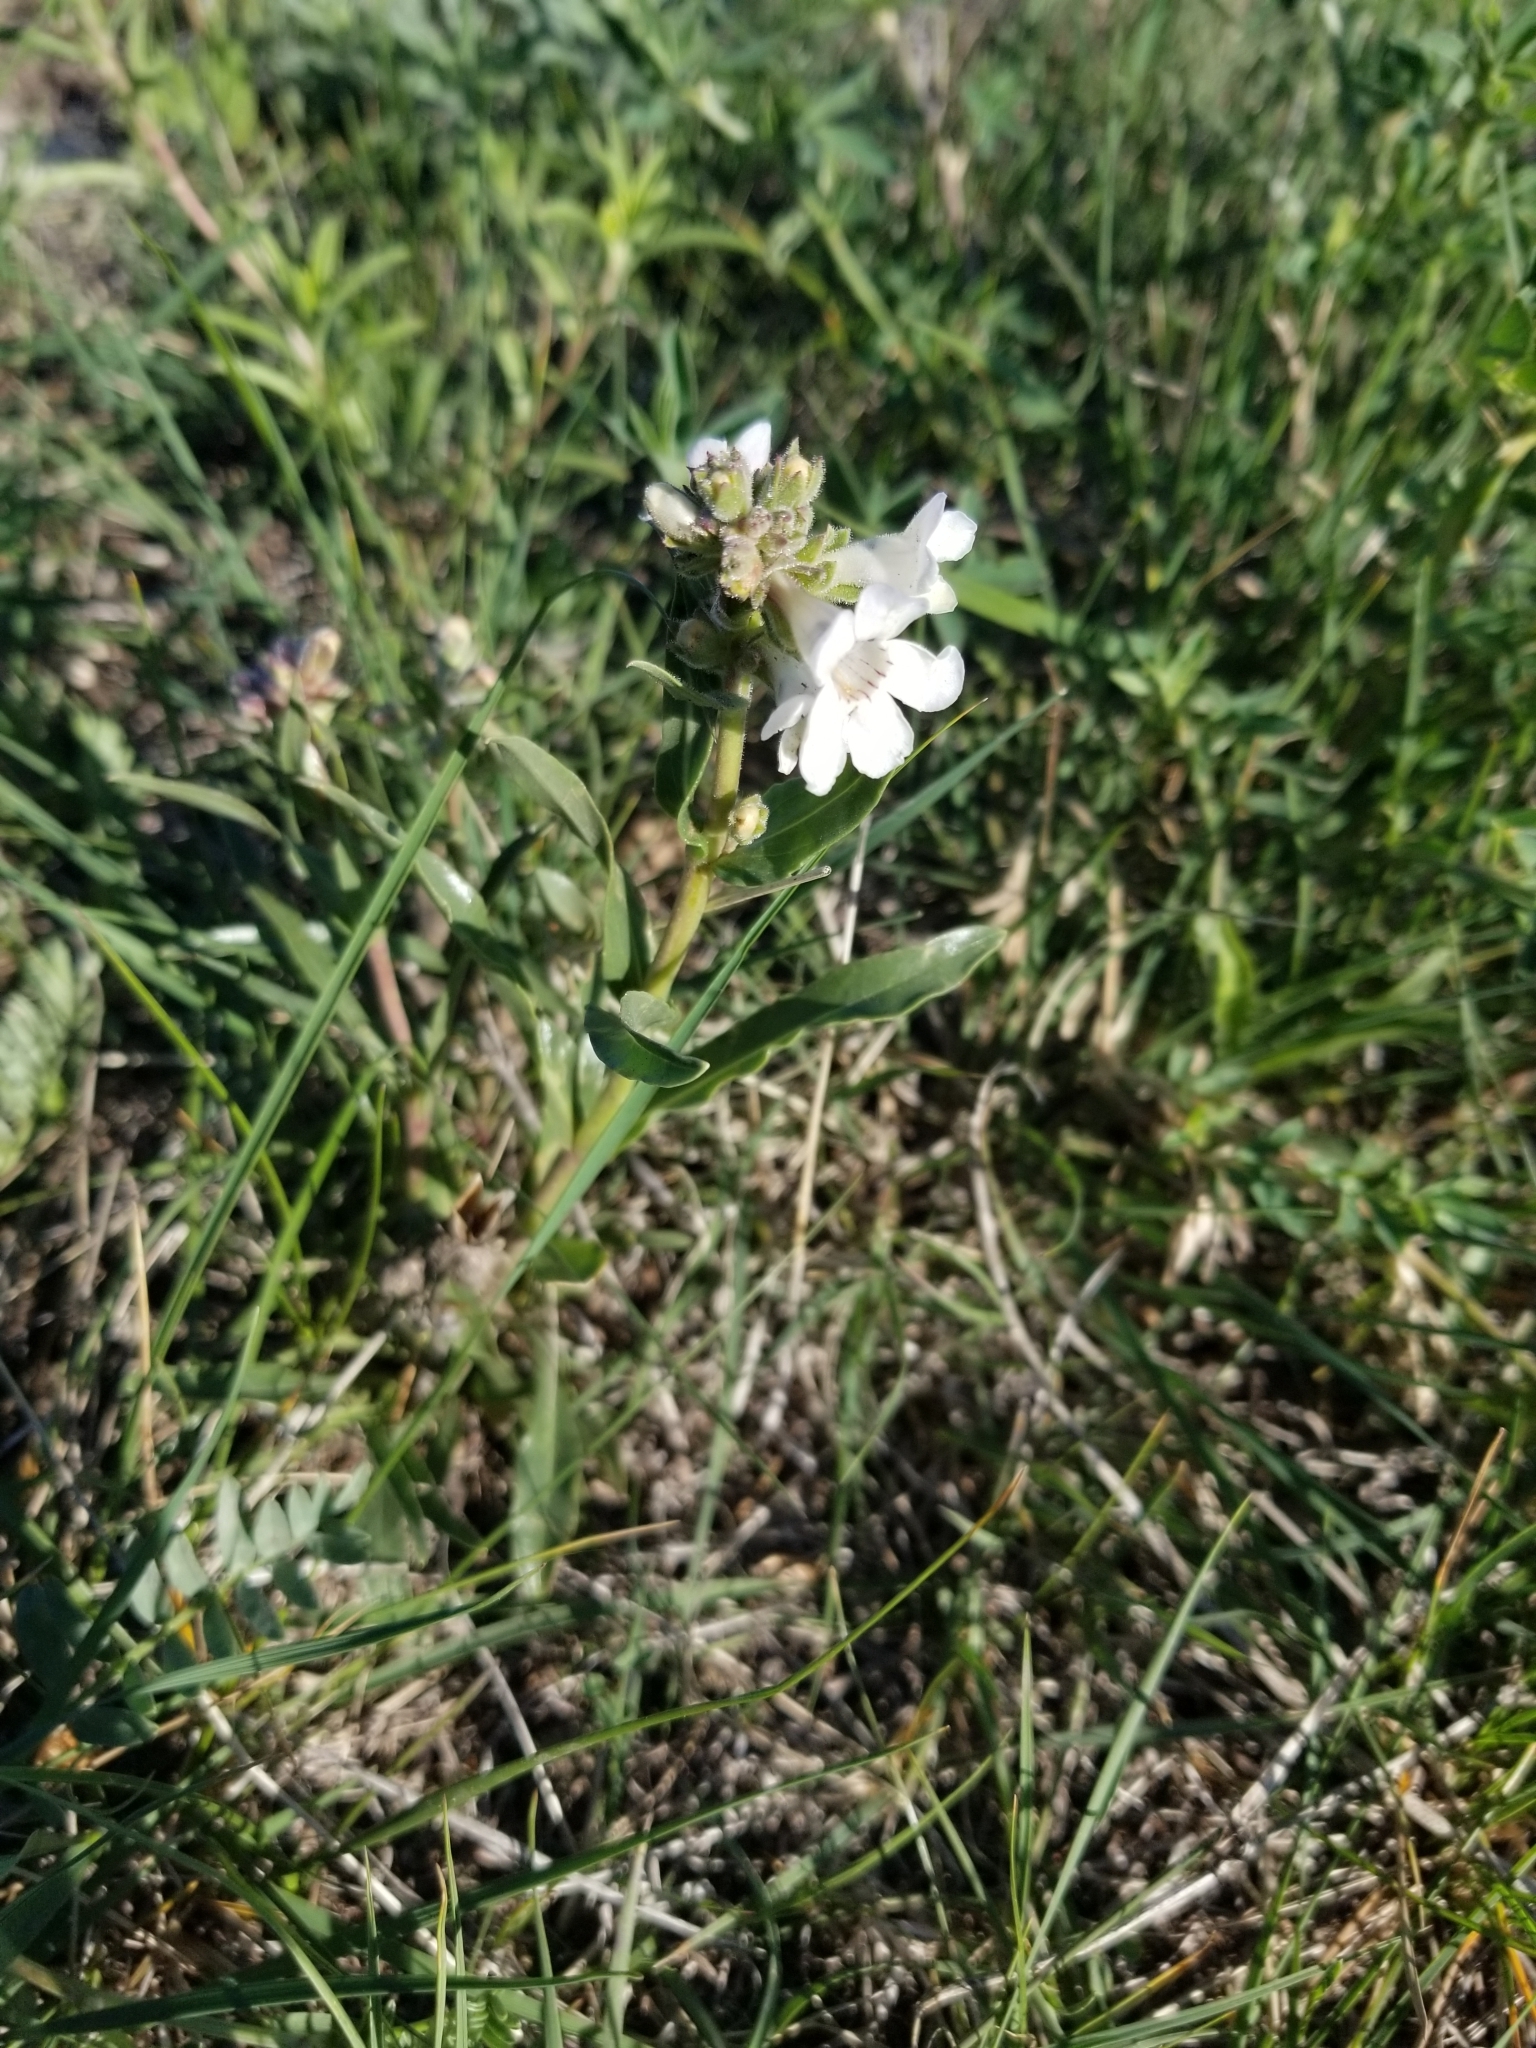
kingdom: Plantae
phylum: Tracheophyta
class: Magnoliopsida
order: Lamiales
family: Plantaginaceae
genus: Penstemon
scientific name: Penstemon albidus
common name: White beardtongue
